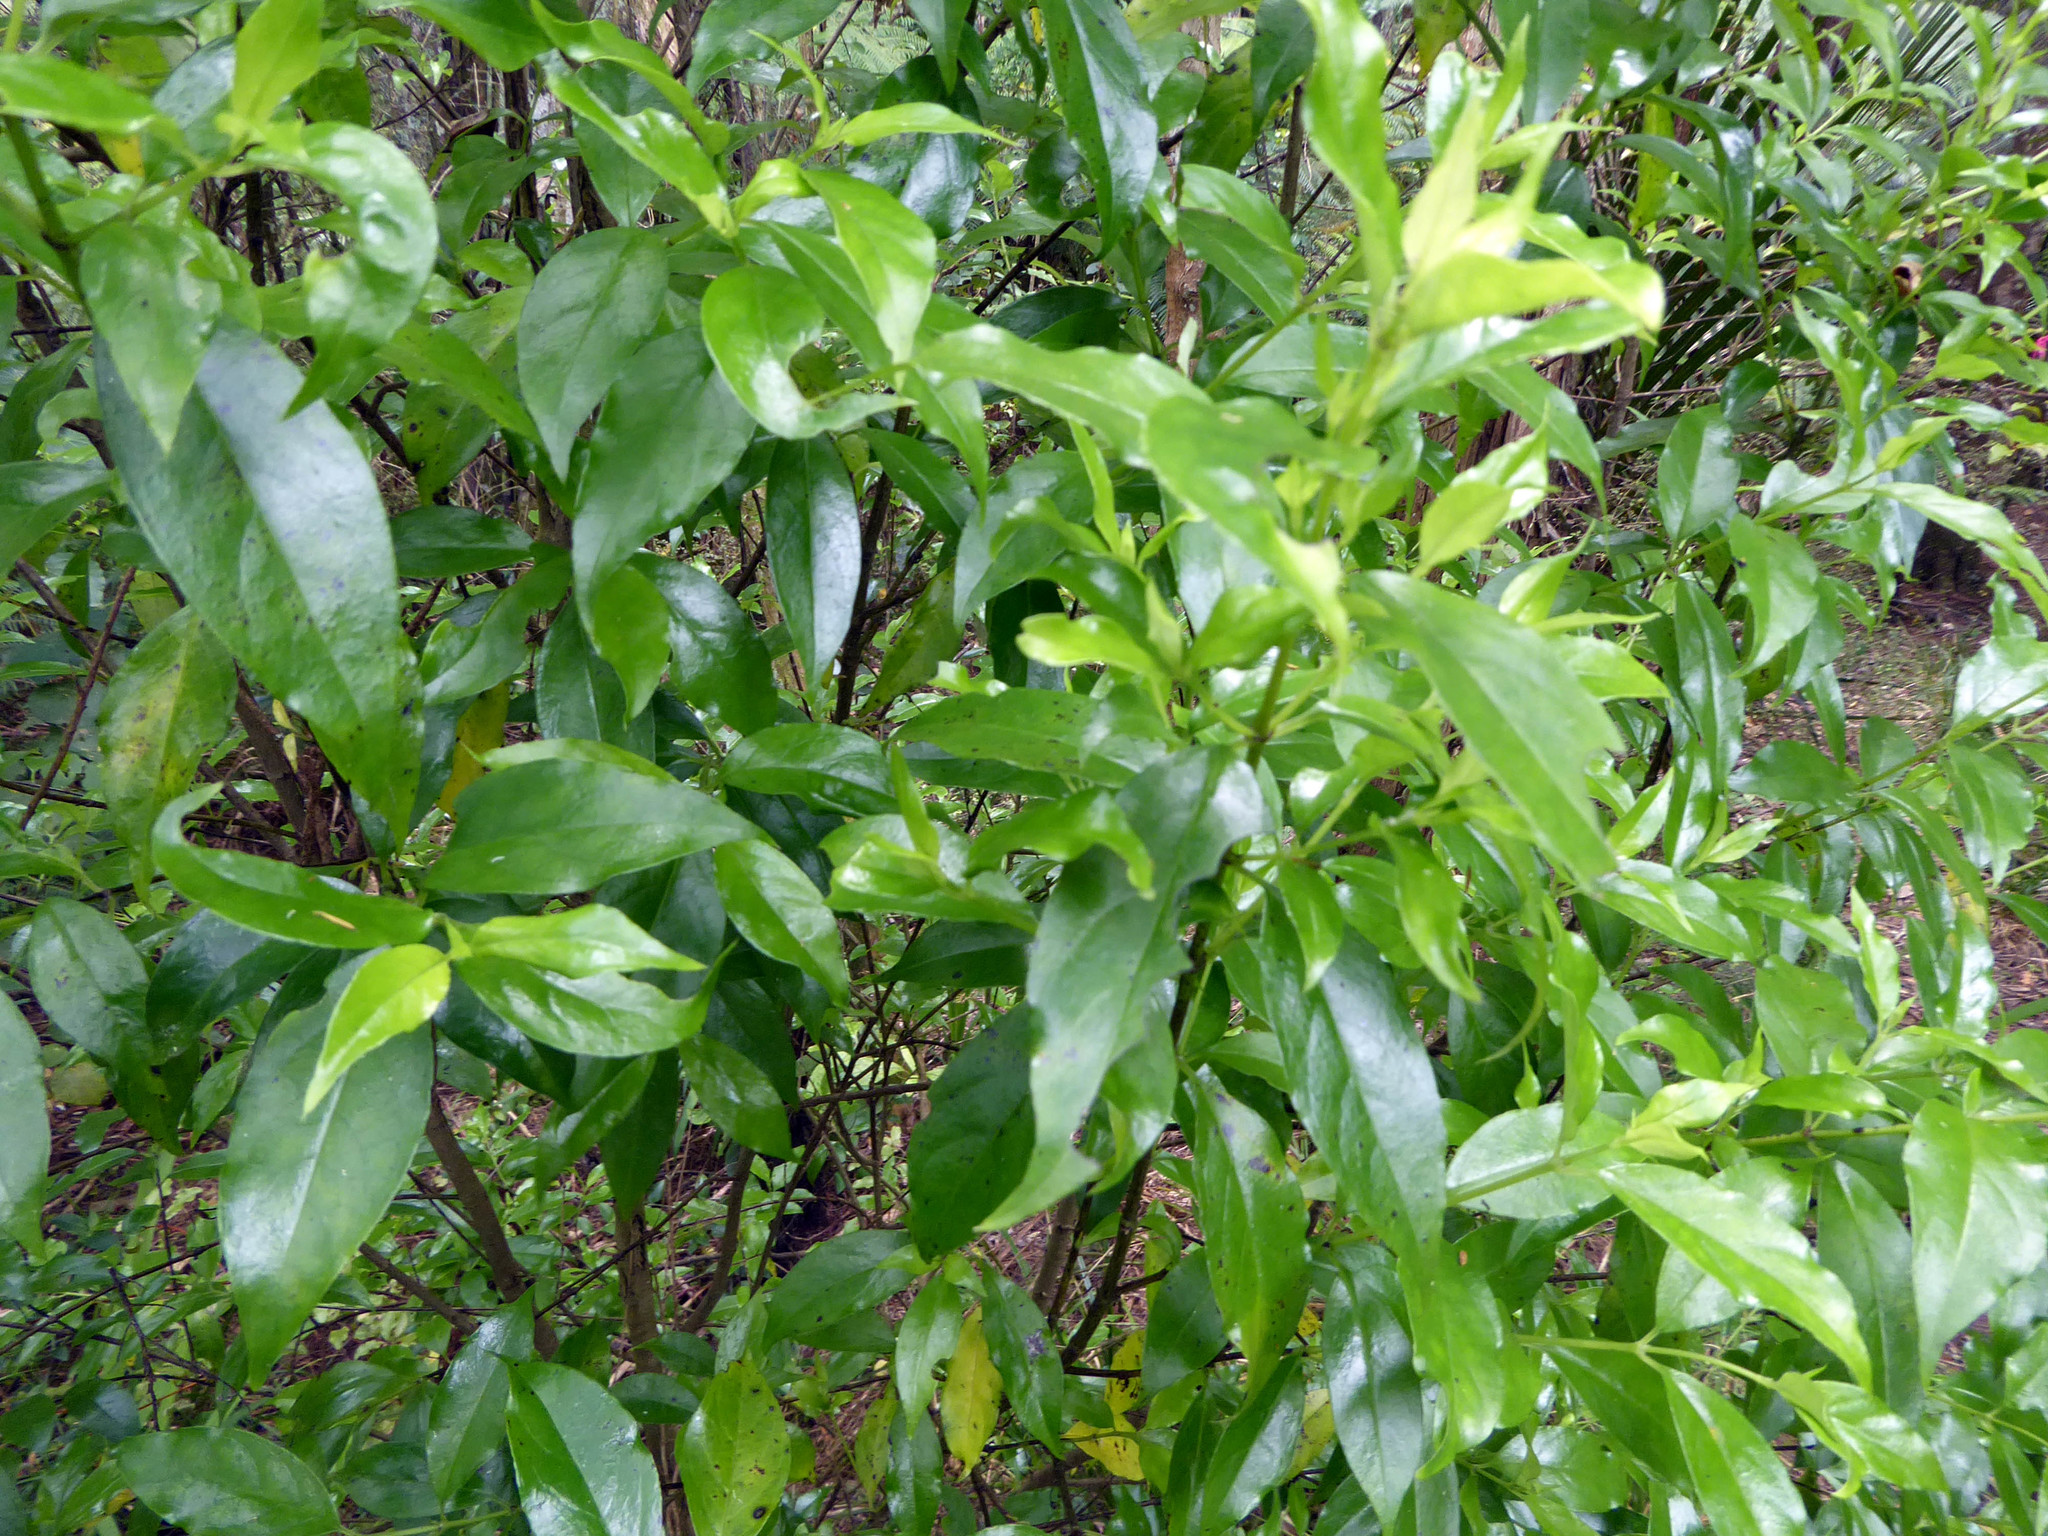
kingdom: Plantae
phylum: Tracheophyta
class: Magnoliopsida
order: Gentianales
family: Loganiaceae
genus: Geniostoma
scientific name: Geniostoma ligustrifolium
